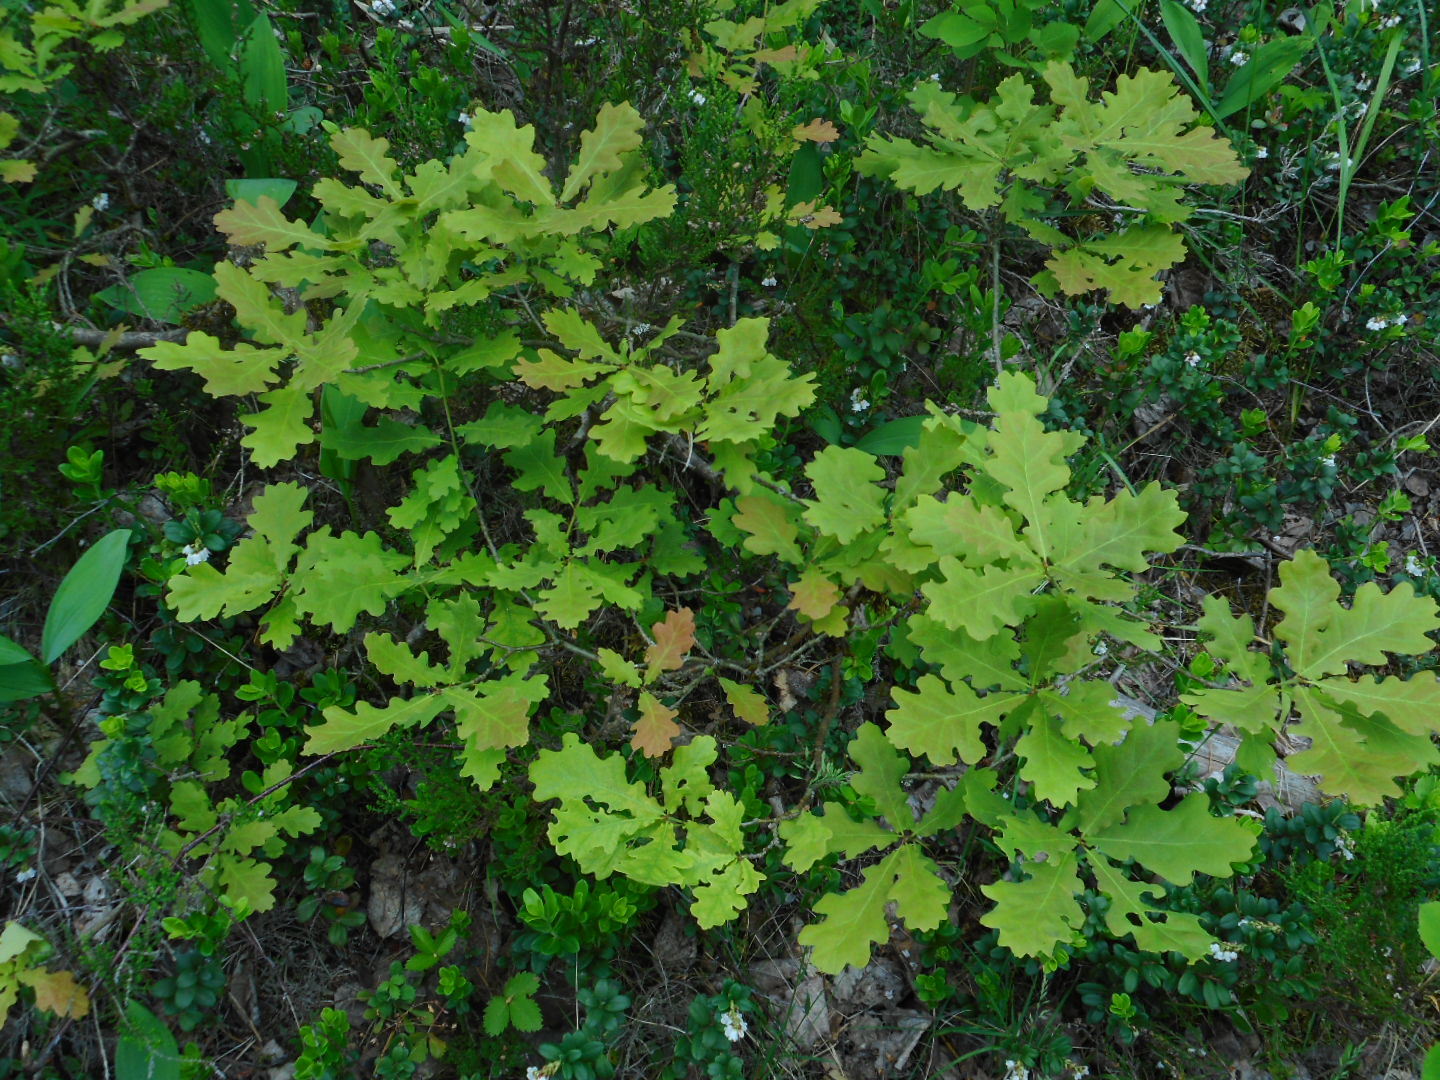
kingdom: Plantae
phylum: Tracheophyta
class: Magnoliopsida
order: Fagales
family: Fagaceae
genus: Quercus
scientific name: Quercus robur
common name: Pedunculate oak
